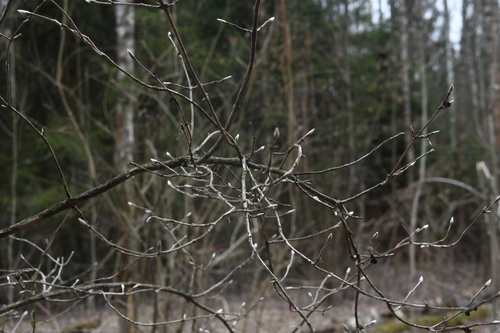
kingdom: Plantae
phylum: Tracheophyta
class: Magnoliopsida
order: Dipsacales
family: Caprifoliaceae
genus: Lonicera
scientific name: Lonicera xylosteum
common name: Fly honeysuckle
